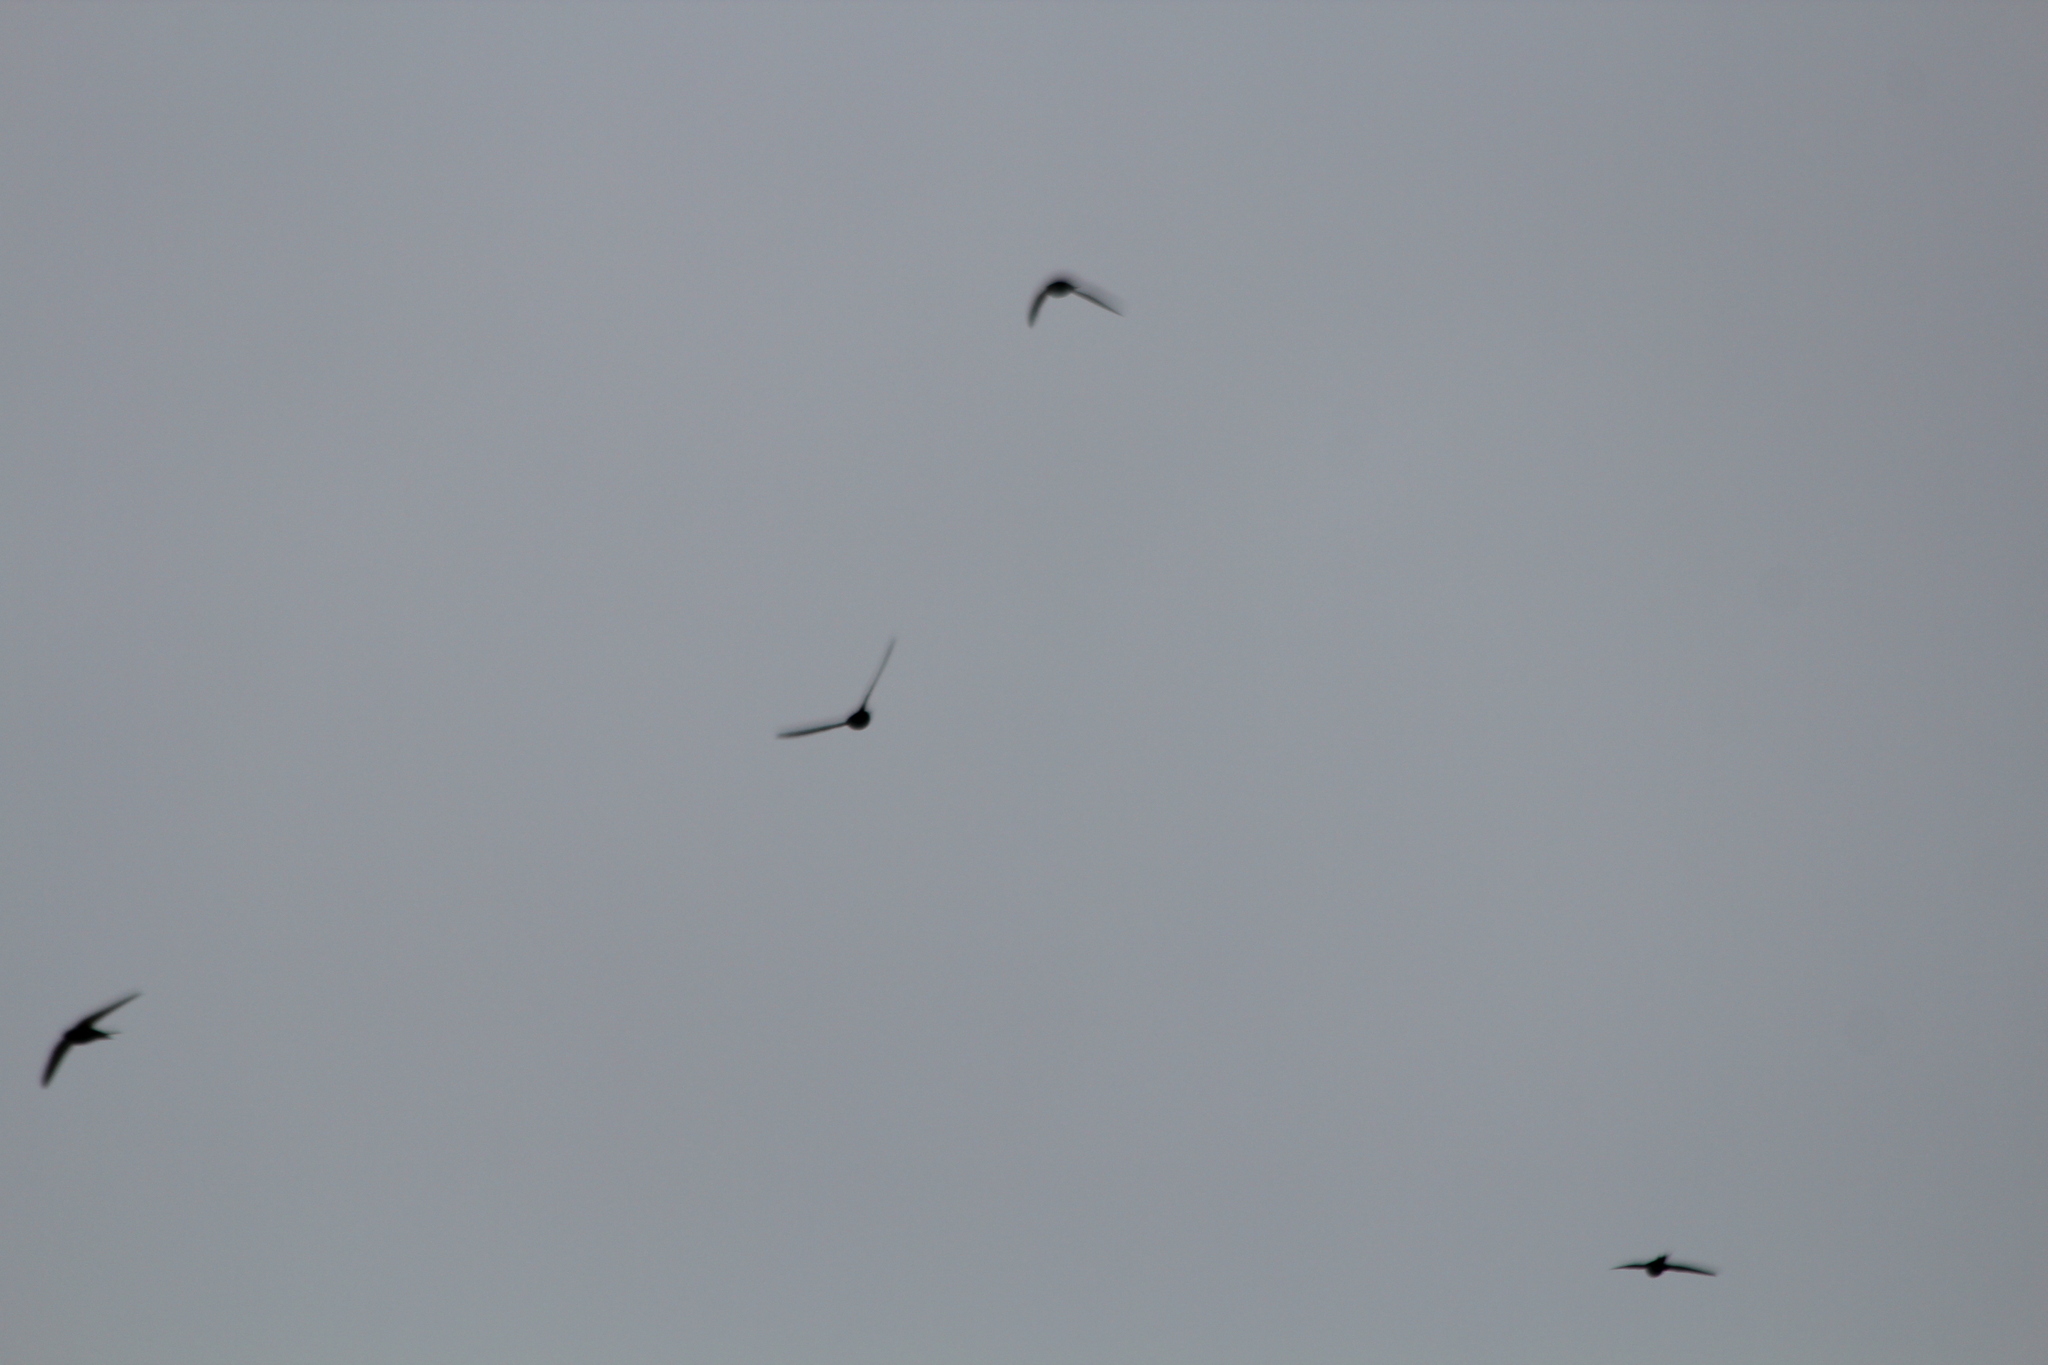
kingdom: Animalia
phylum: Chordata
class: Aves
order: Apodiformes
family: Apodidae
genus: Apus
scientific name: Apus apus
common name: Common swift
